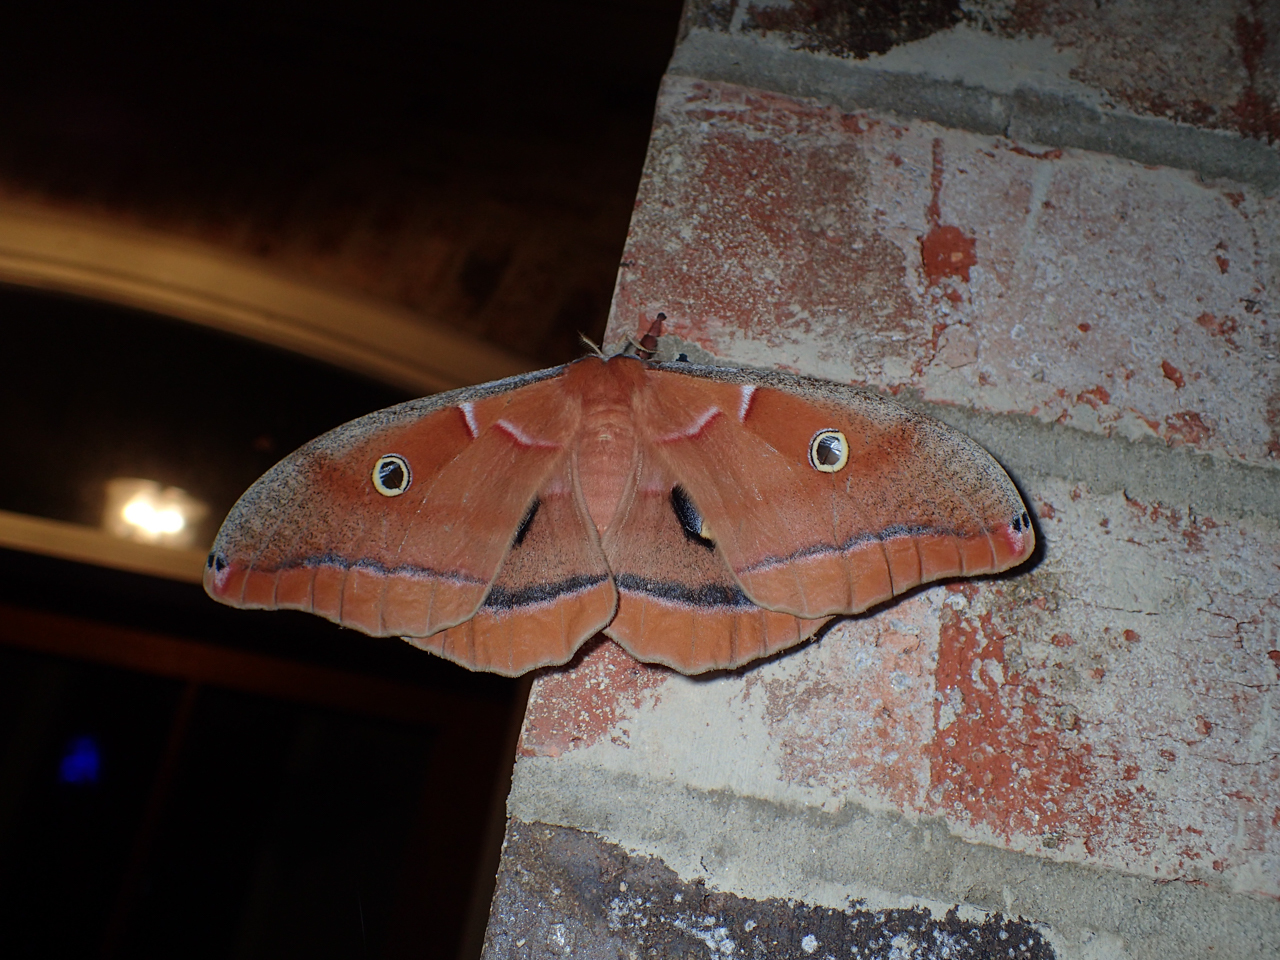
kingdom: Animalia
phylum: Arthropoda
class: Insecta
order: Lepidoptera
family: Saturniidae
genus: Antheraea
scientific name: Antheraea polyphemus
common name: Polyphemus moth
